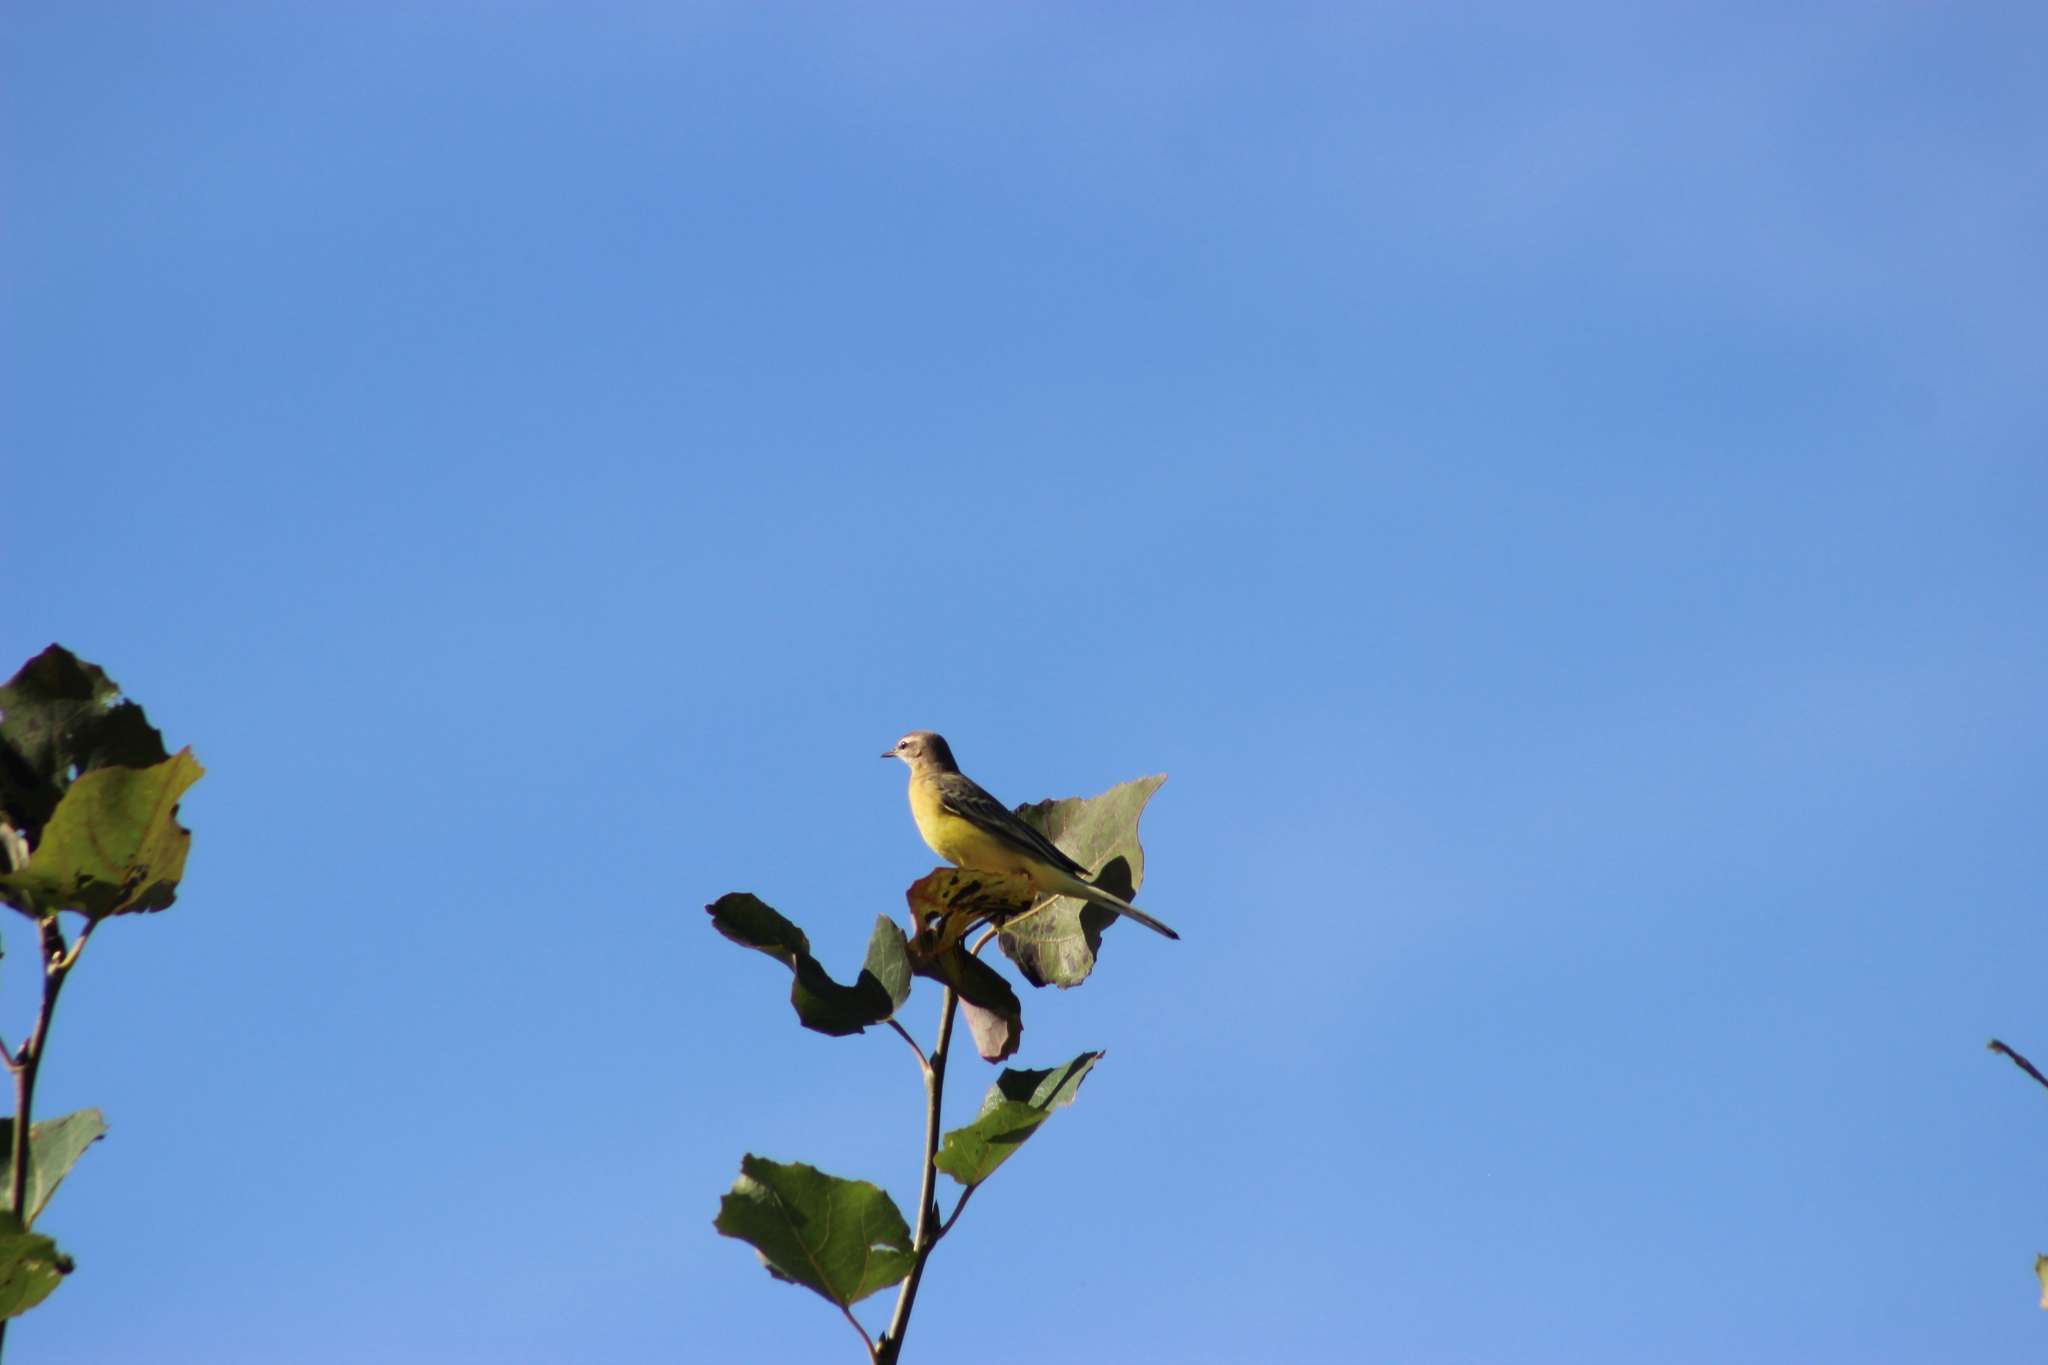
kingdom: Animalia
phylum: Chordata
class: Aves
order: Passeriformes
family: Motacillidae
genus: Motacilla
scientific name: Motacilla flava
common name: Western yellow wagtail
